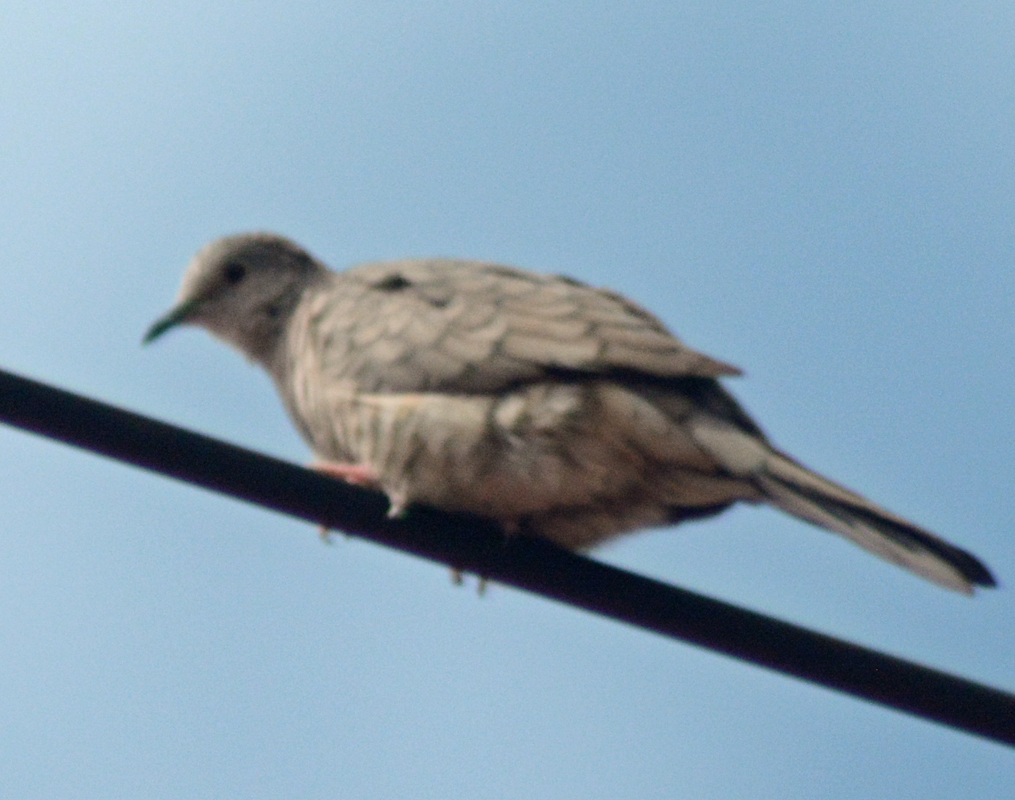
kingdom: Animalia
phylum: Chordata
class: Aves
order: Columbiformes
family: Columbidae
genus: Columbina
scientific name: Columbina inca
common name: Inca dove
